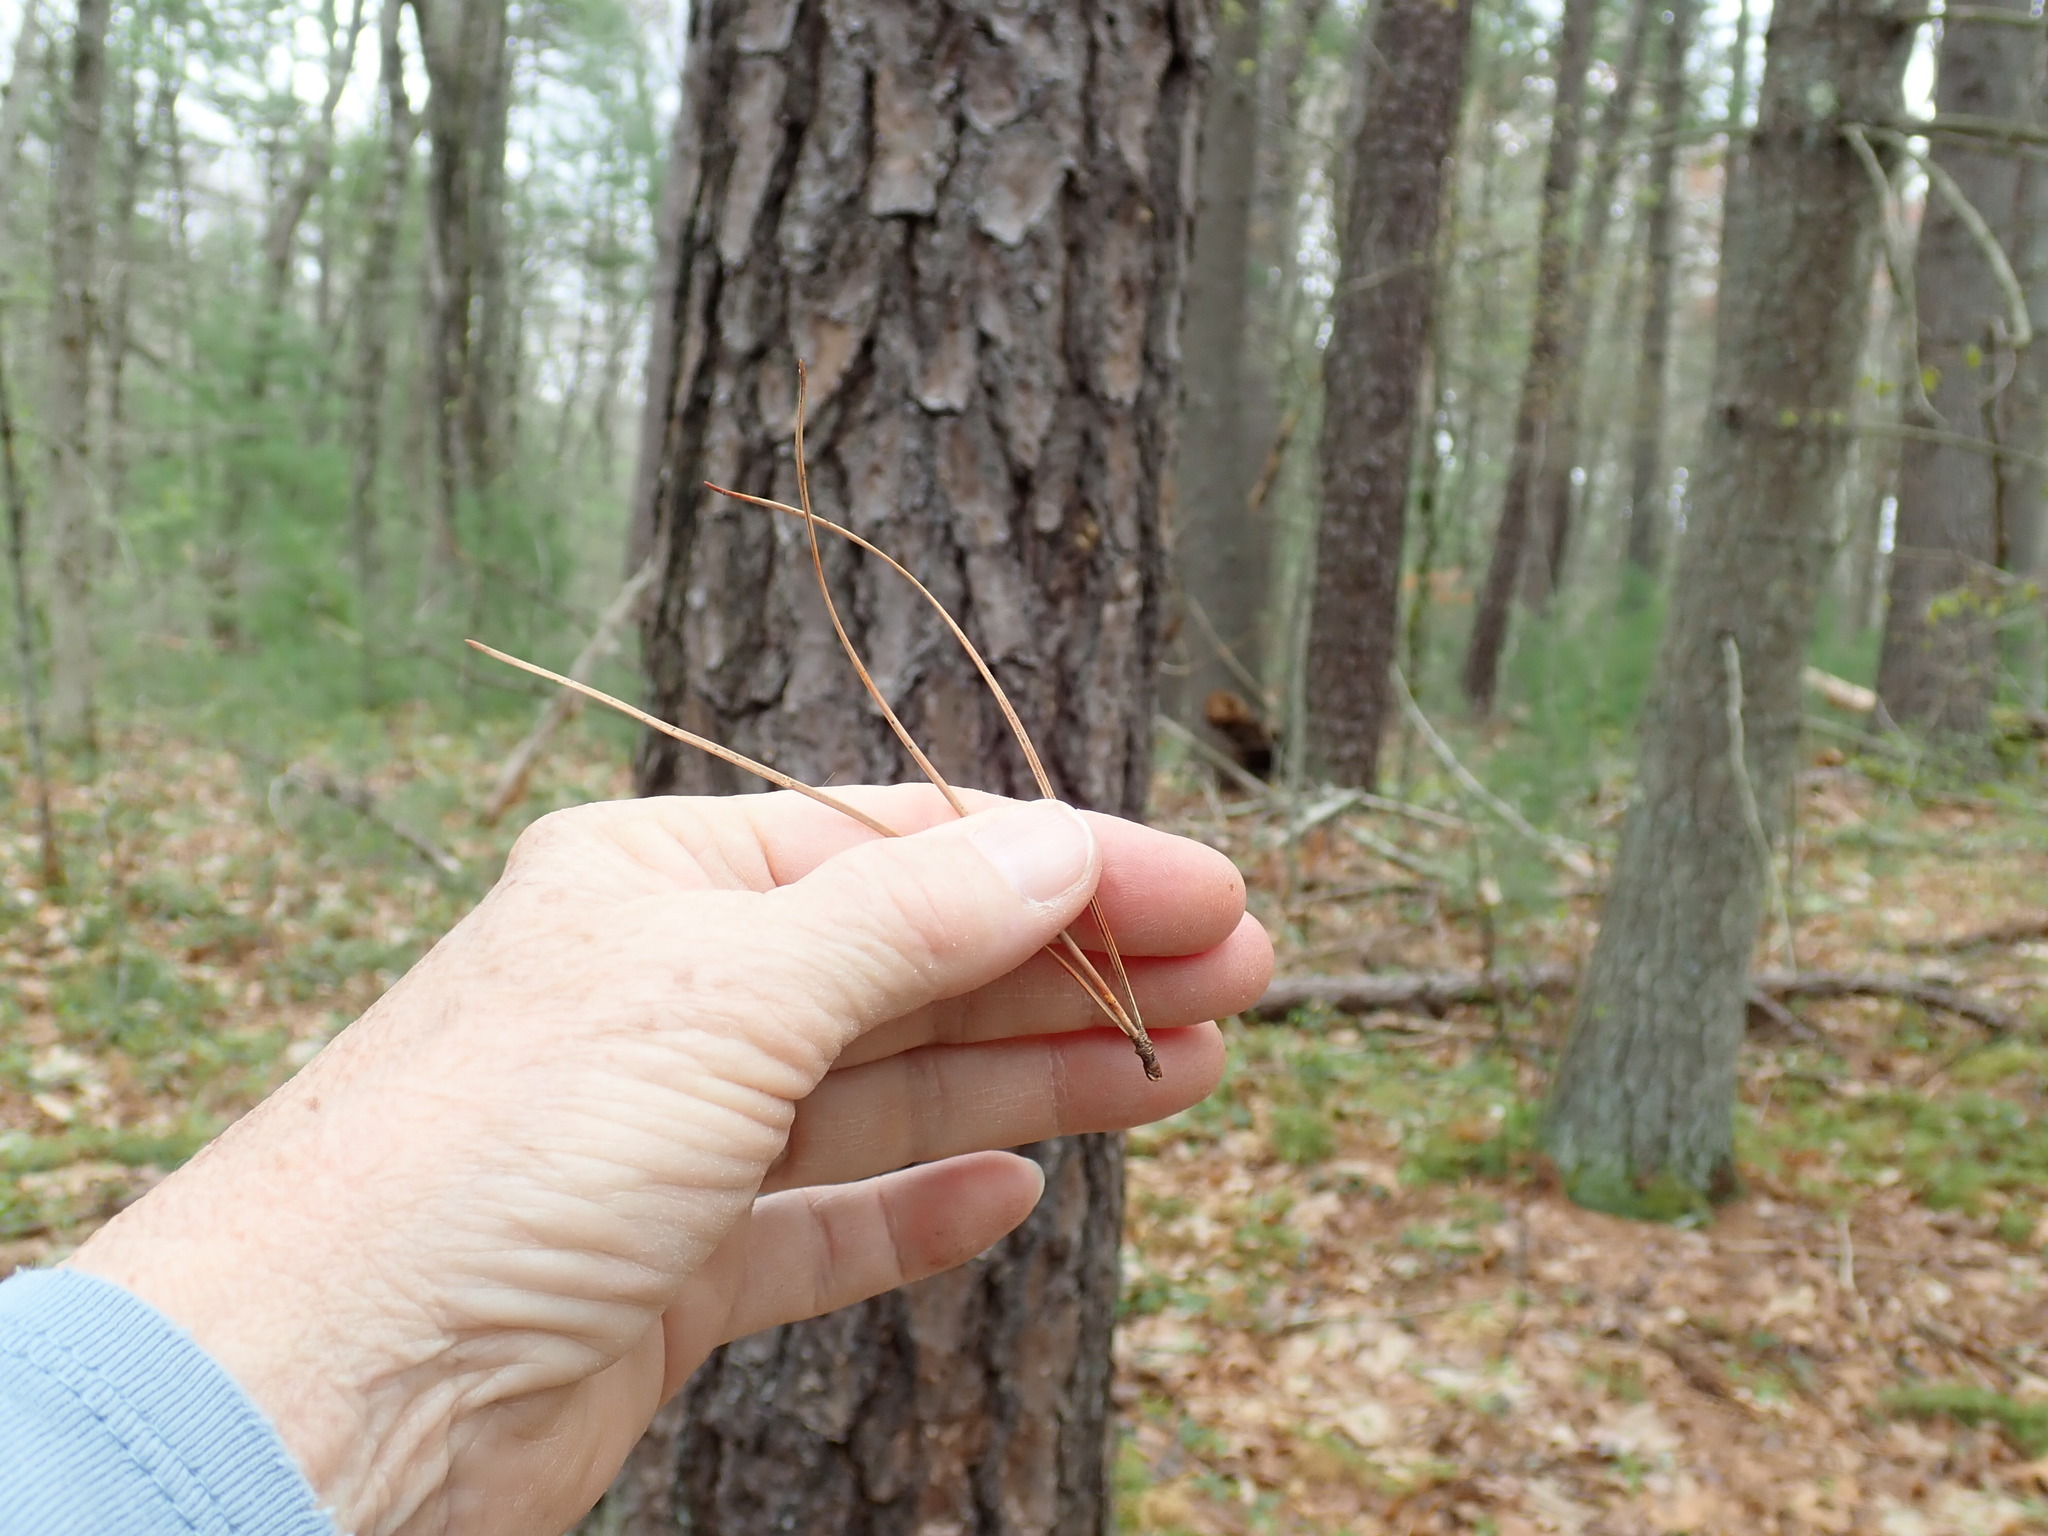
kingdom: Plantae
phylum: Tracheophyta
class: Pinopsida
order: Pinales
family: Pinaceae
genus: Pinus
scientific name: Pinus rigida
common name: Pitch pine
